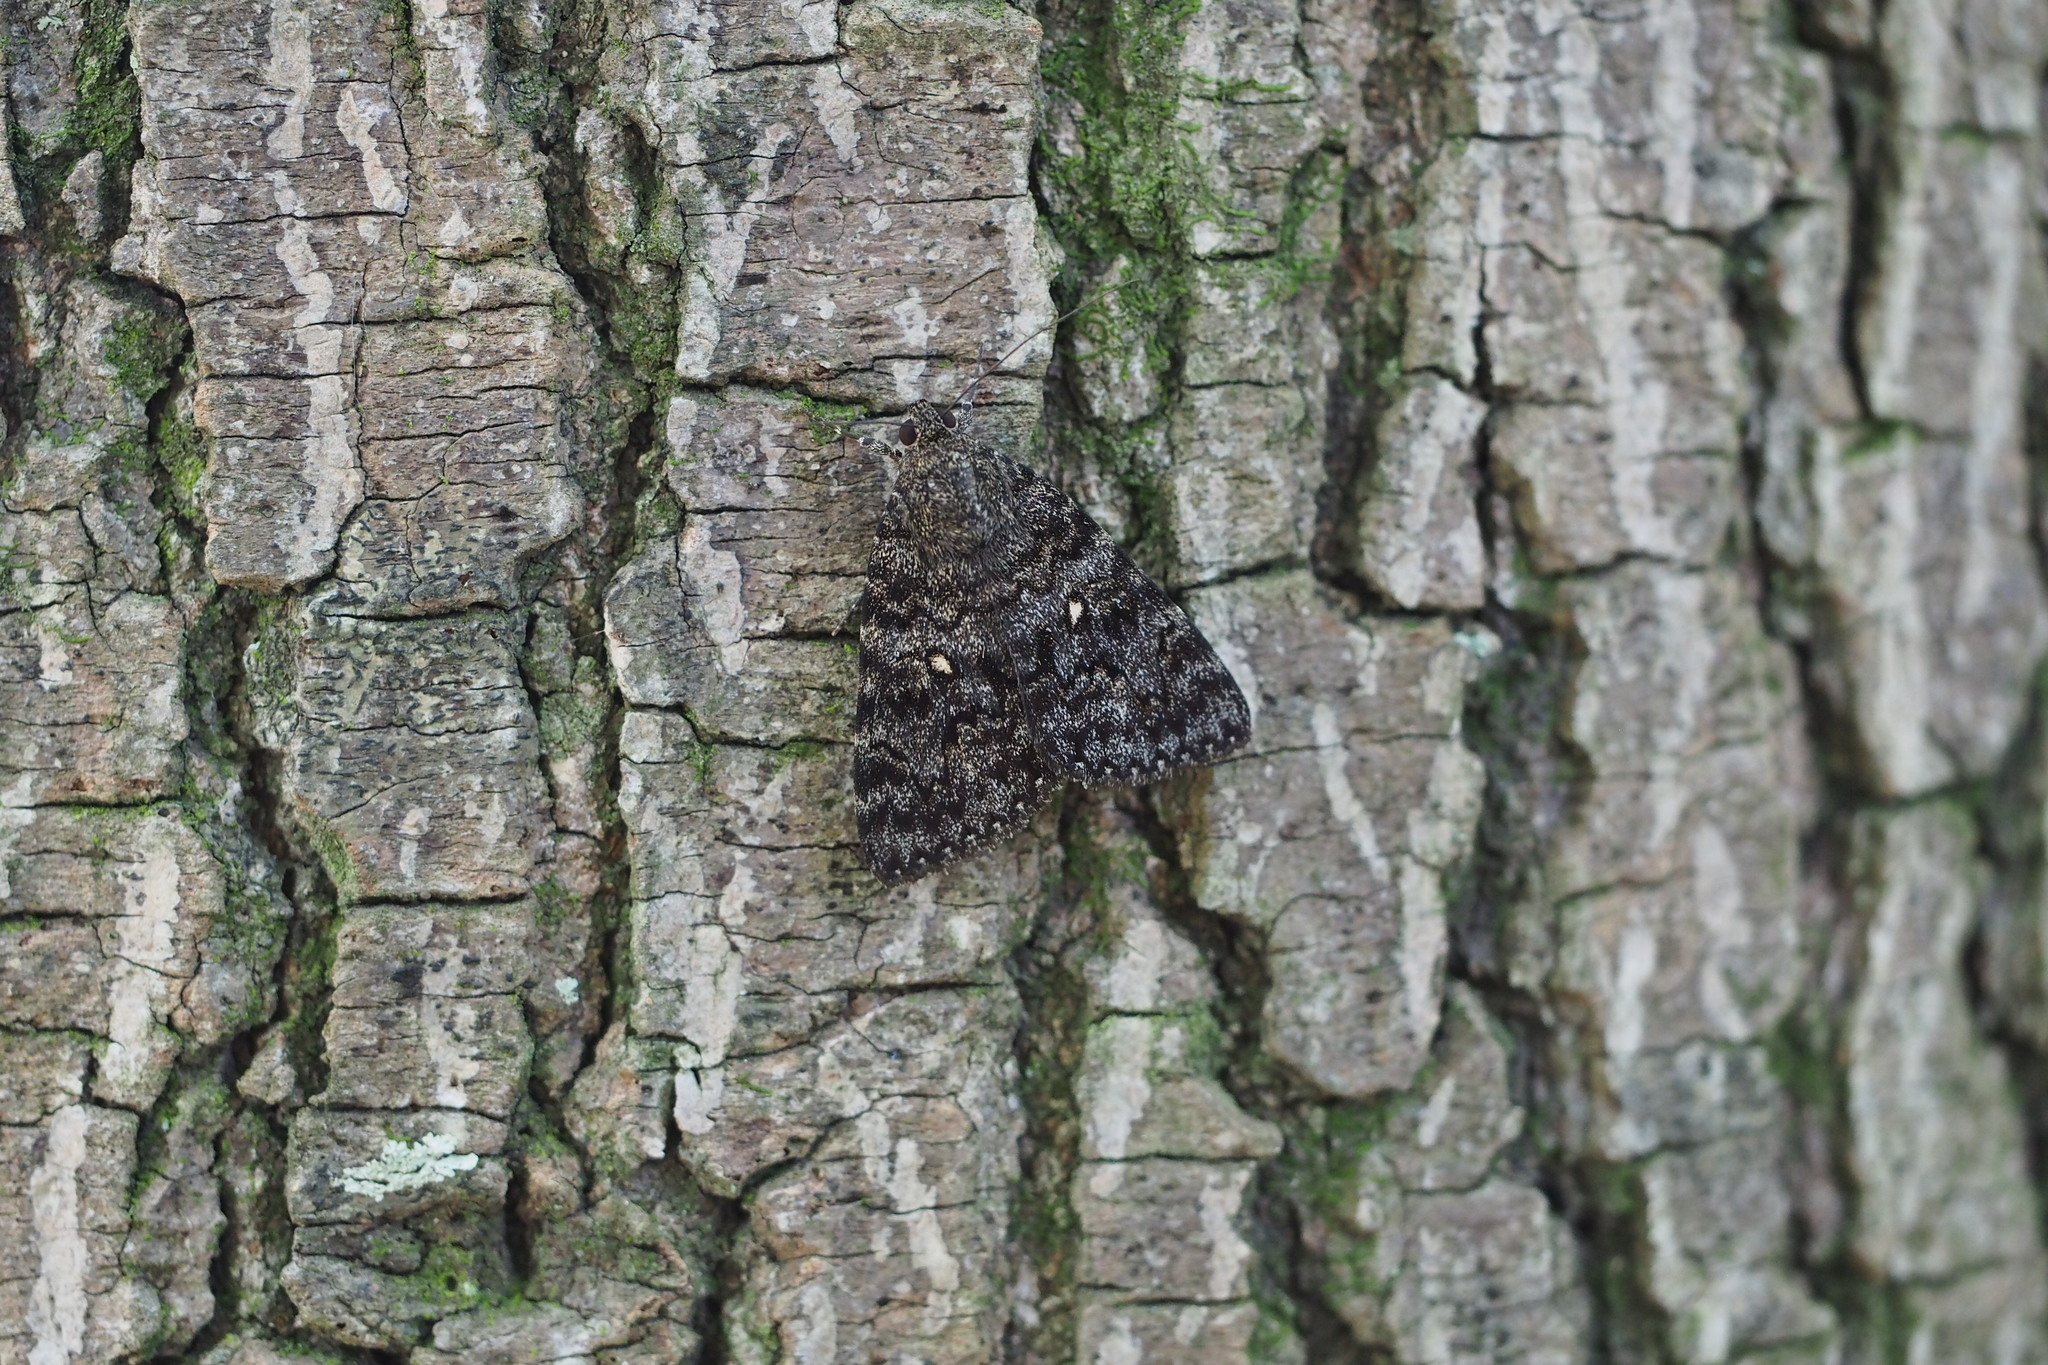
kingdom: Animalia
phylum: Arthropoda
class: Insecta
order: Lepidoptera
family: Erebidae
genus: Catocala
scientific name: Catocala actaea
